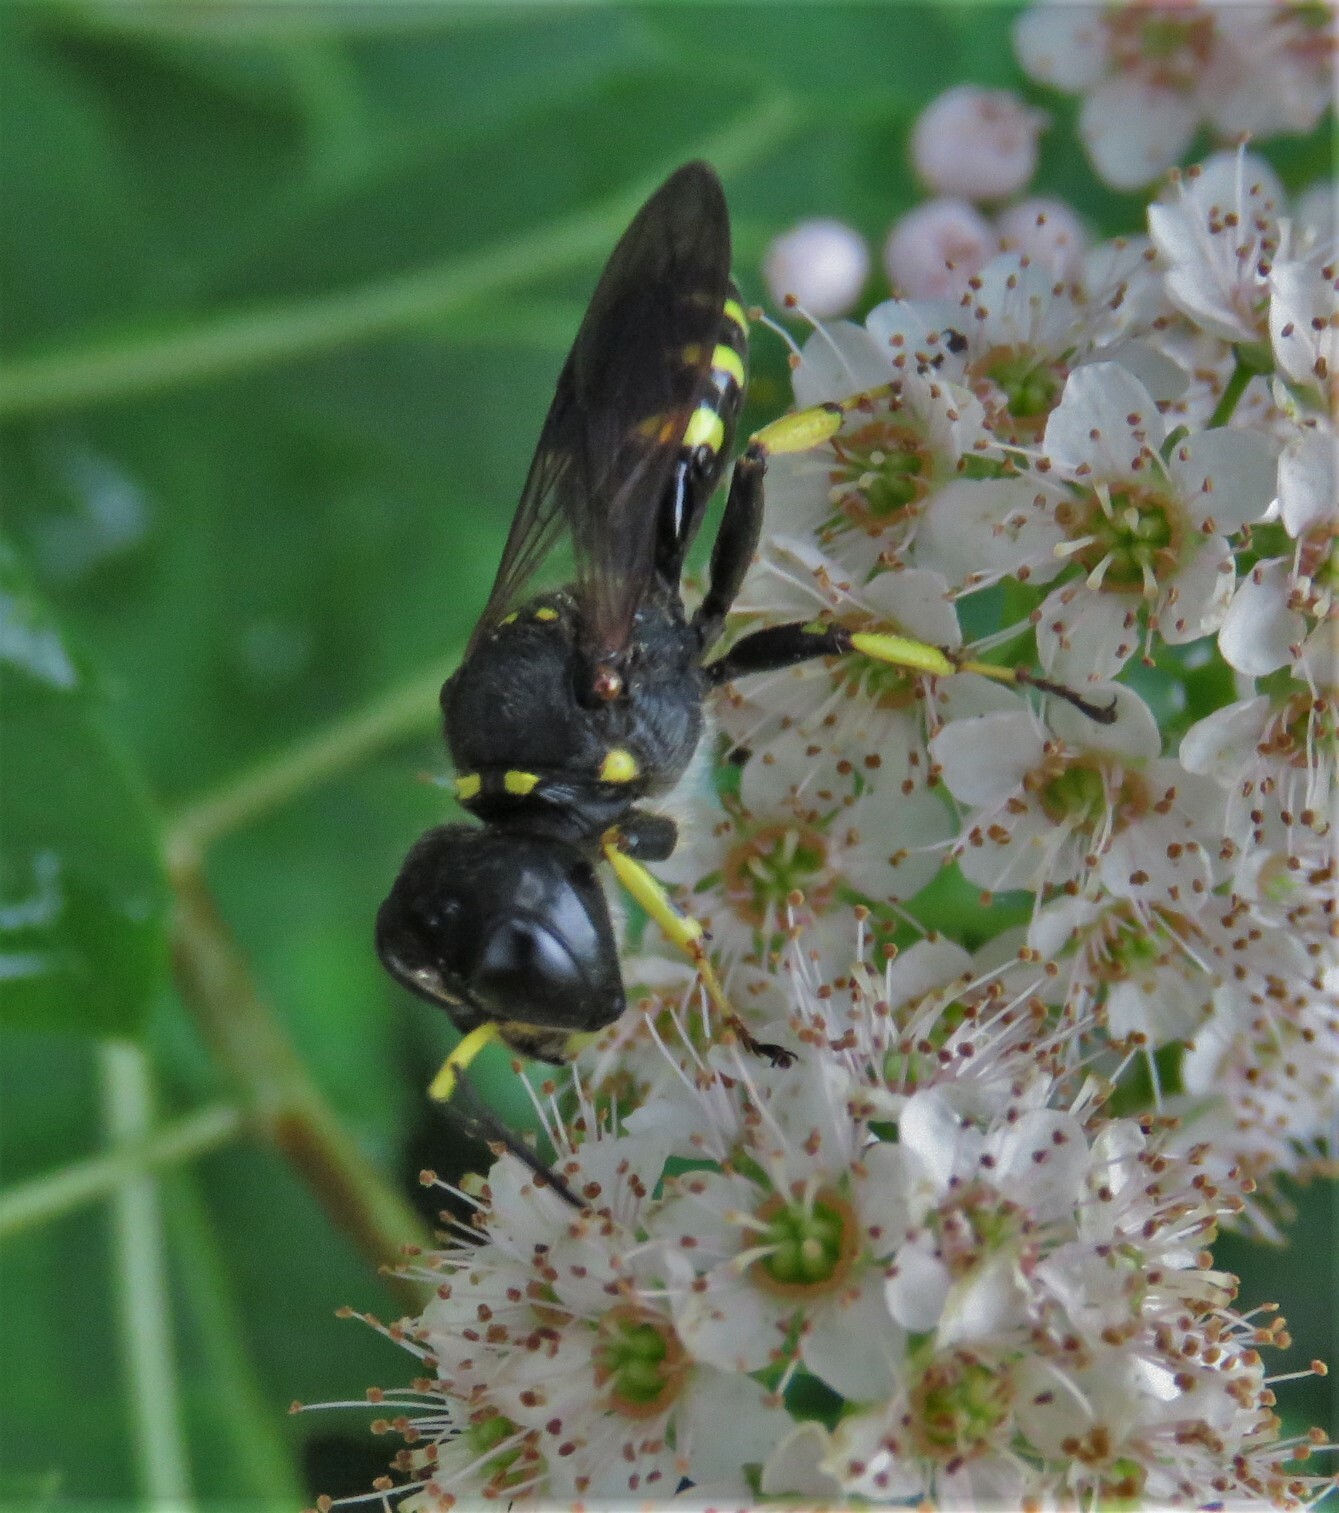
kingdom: Animalia
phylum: Arthropoda
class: Insecta
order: Hymenoptera
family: Crabronidae
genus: Ectemnius
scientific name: Ectemnius maculosus
